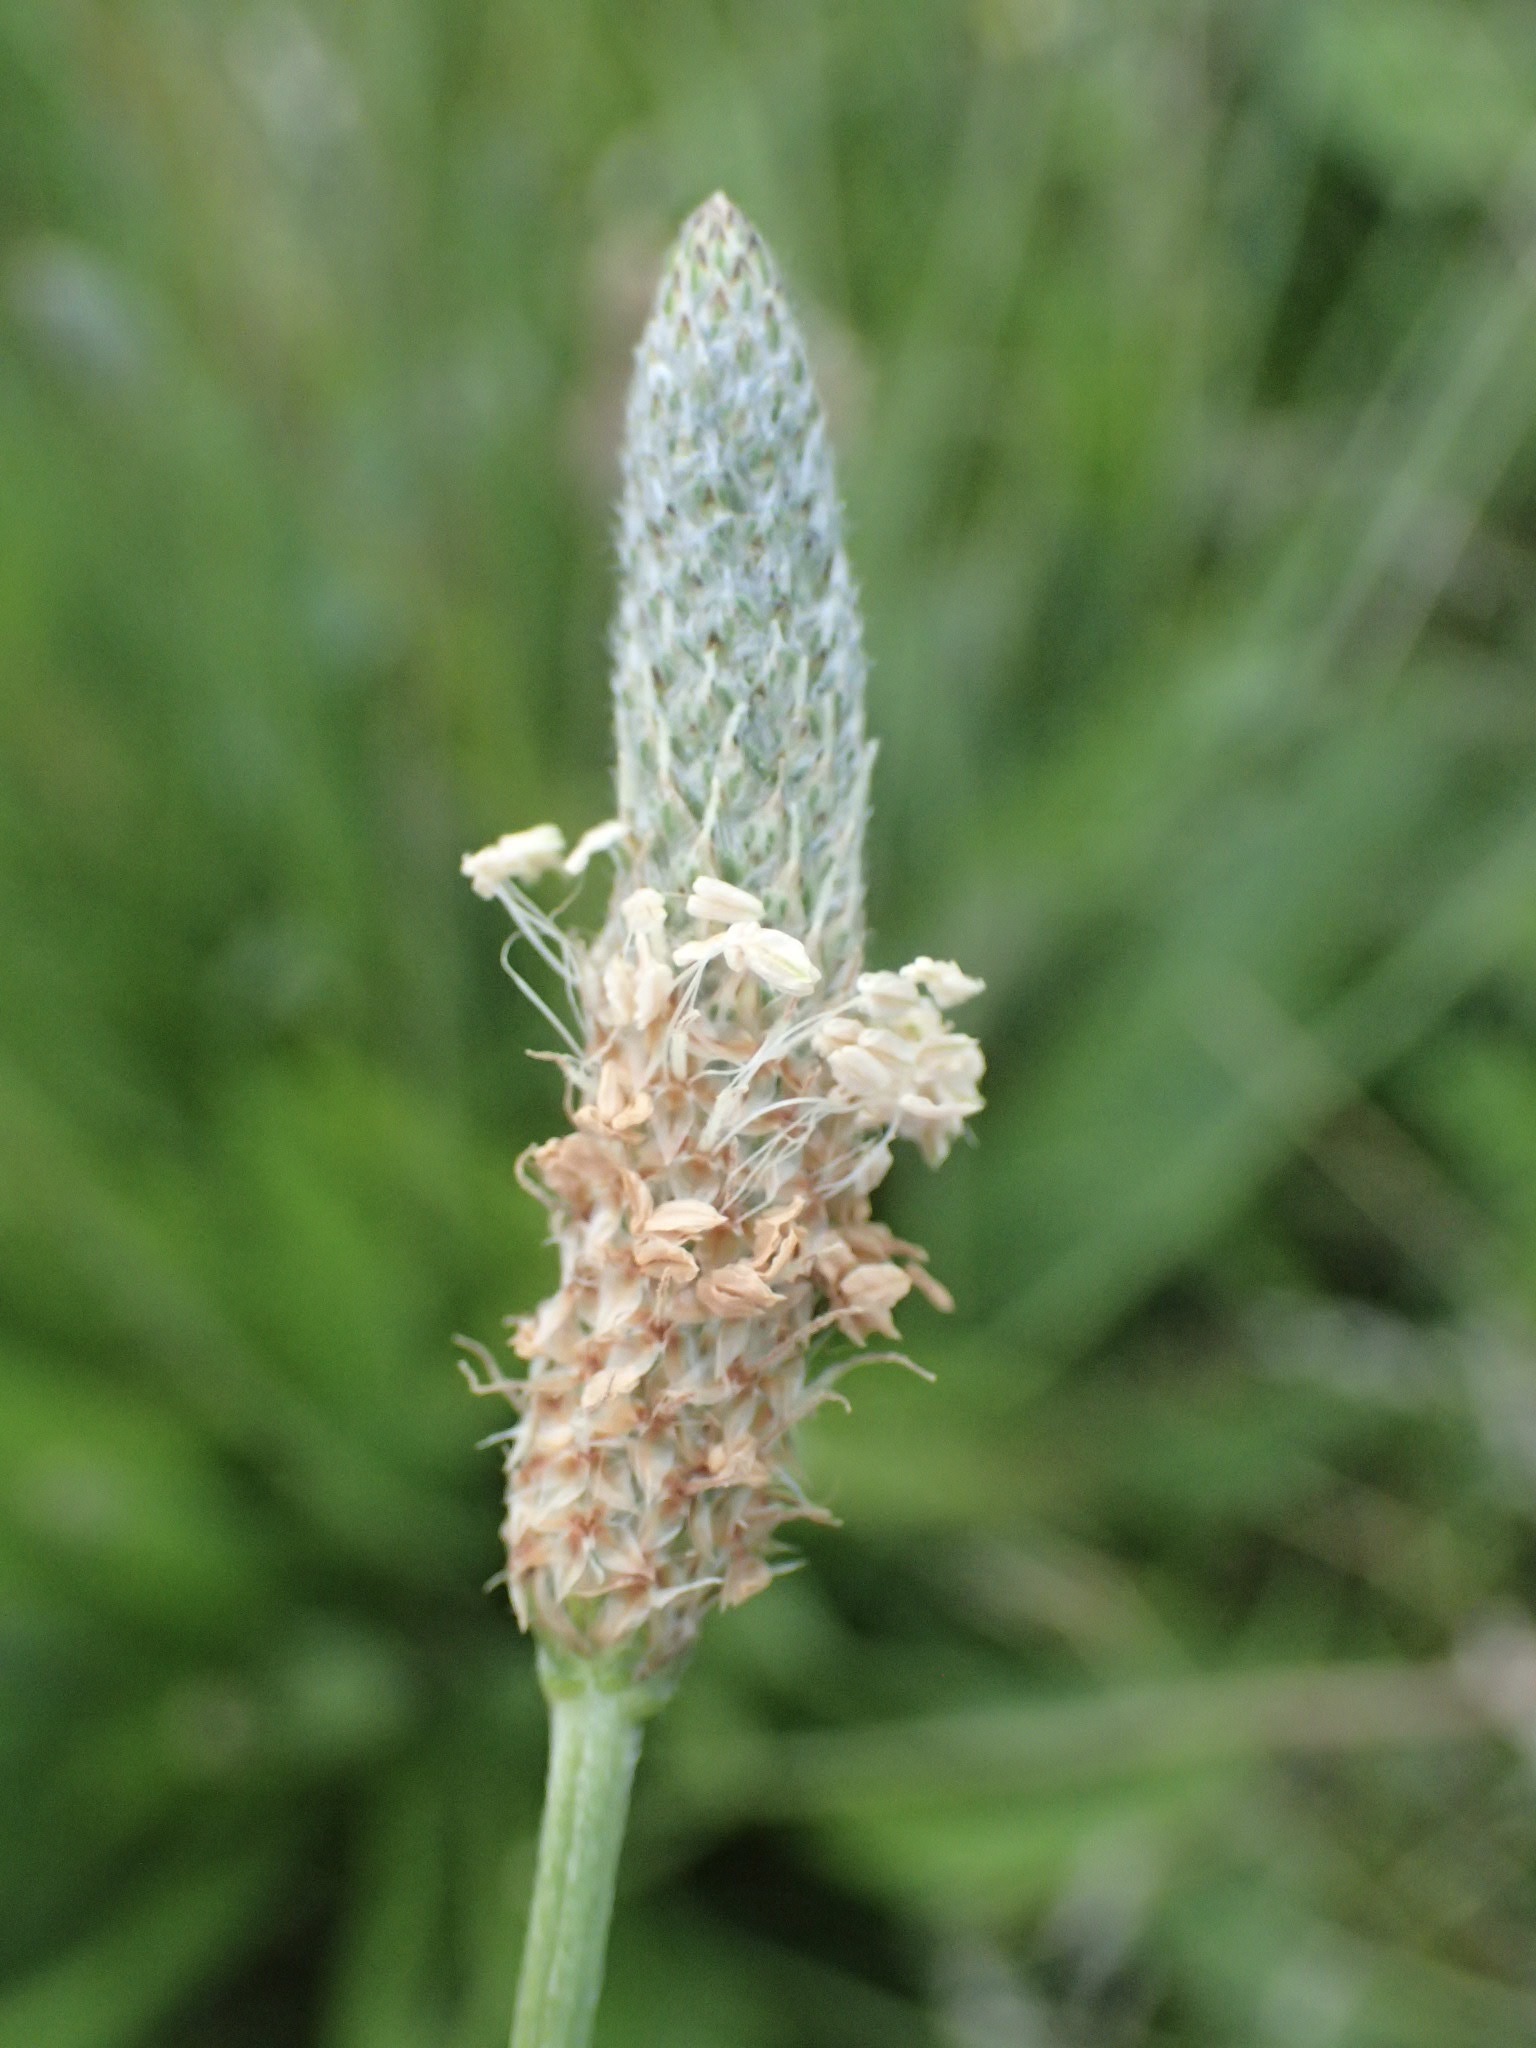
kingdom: Plantae
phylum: Tracheophyta
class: Magnoliopsida
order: Lamiales
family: Plantaginaceae
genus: Plantago
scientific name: Plantago lanceolata
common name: Ribwort plantain
